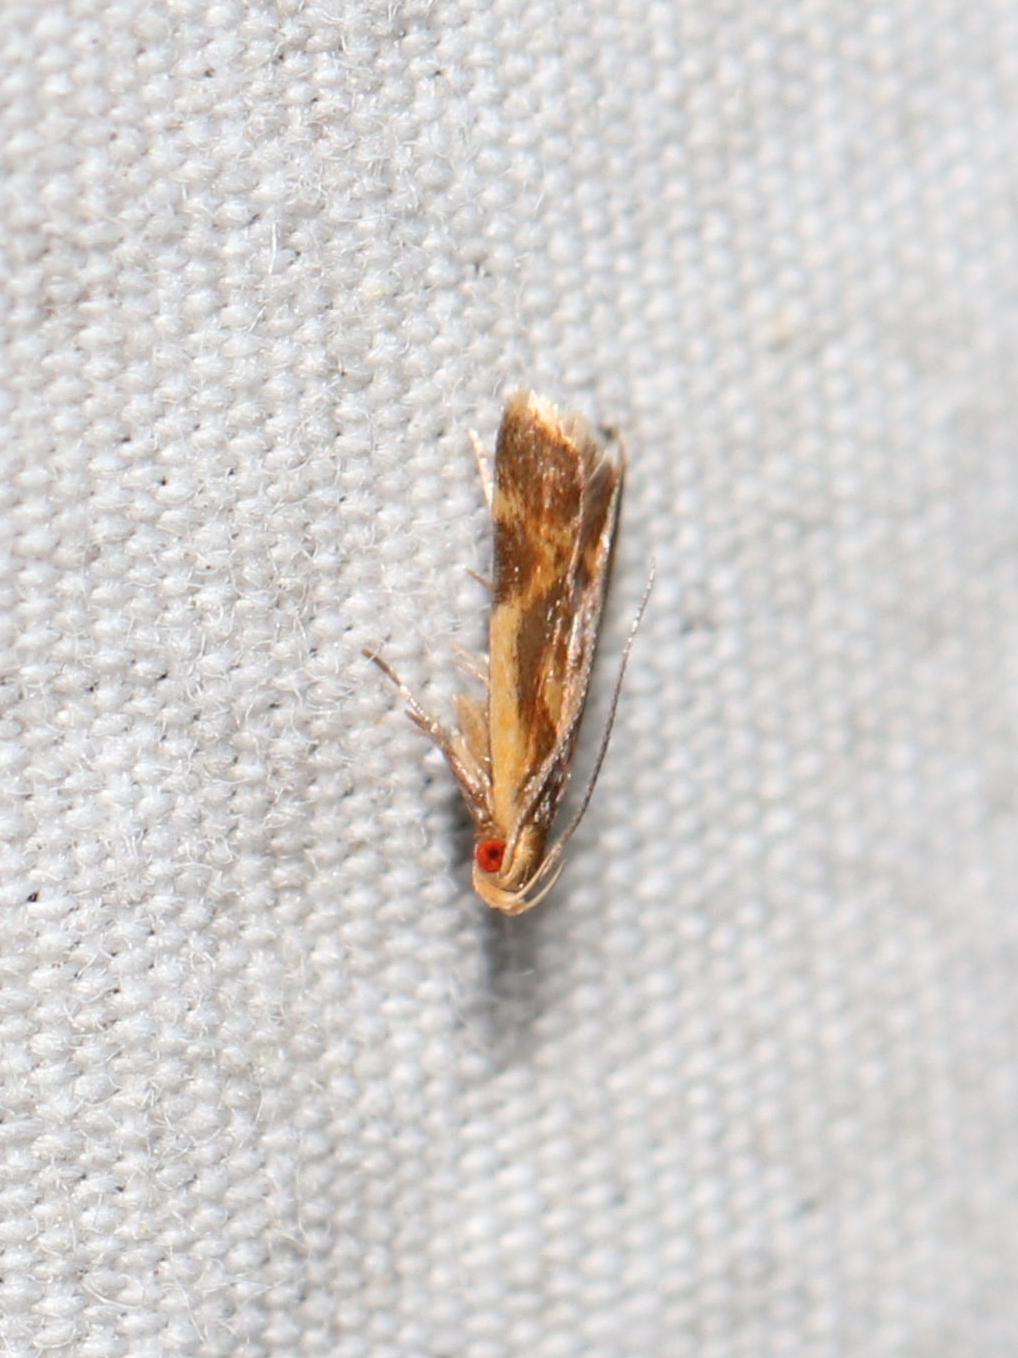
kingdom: Animalia
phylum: Arthropoda
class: Insecta
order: Lepidoptera
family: Gelechiidae
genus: Dichomeris
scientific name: Dichomeris siren
